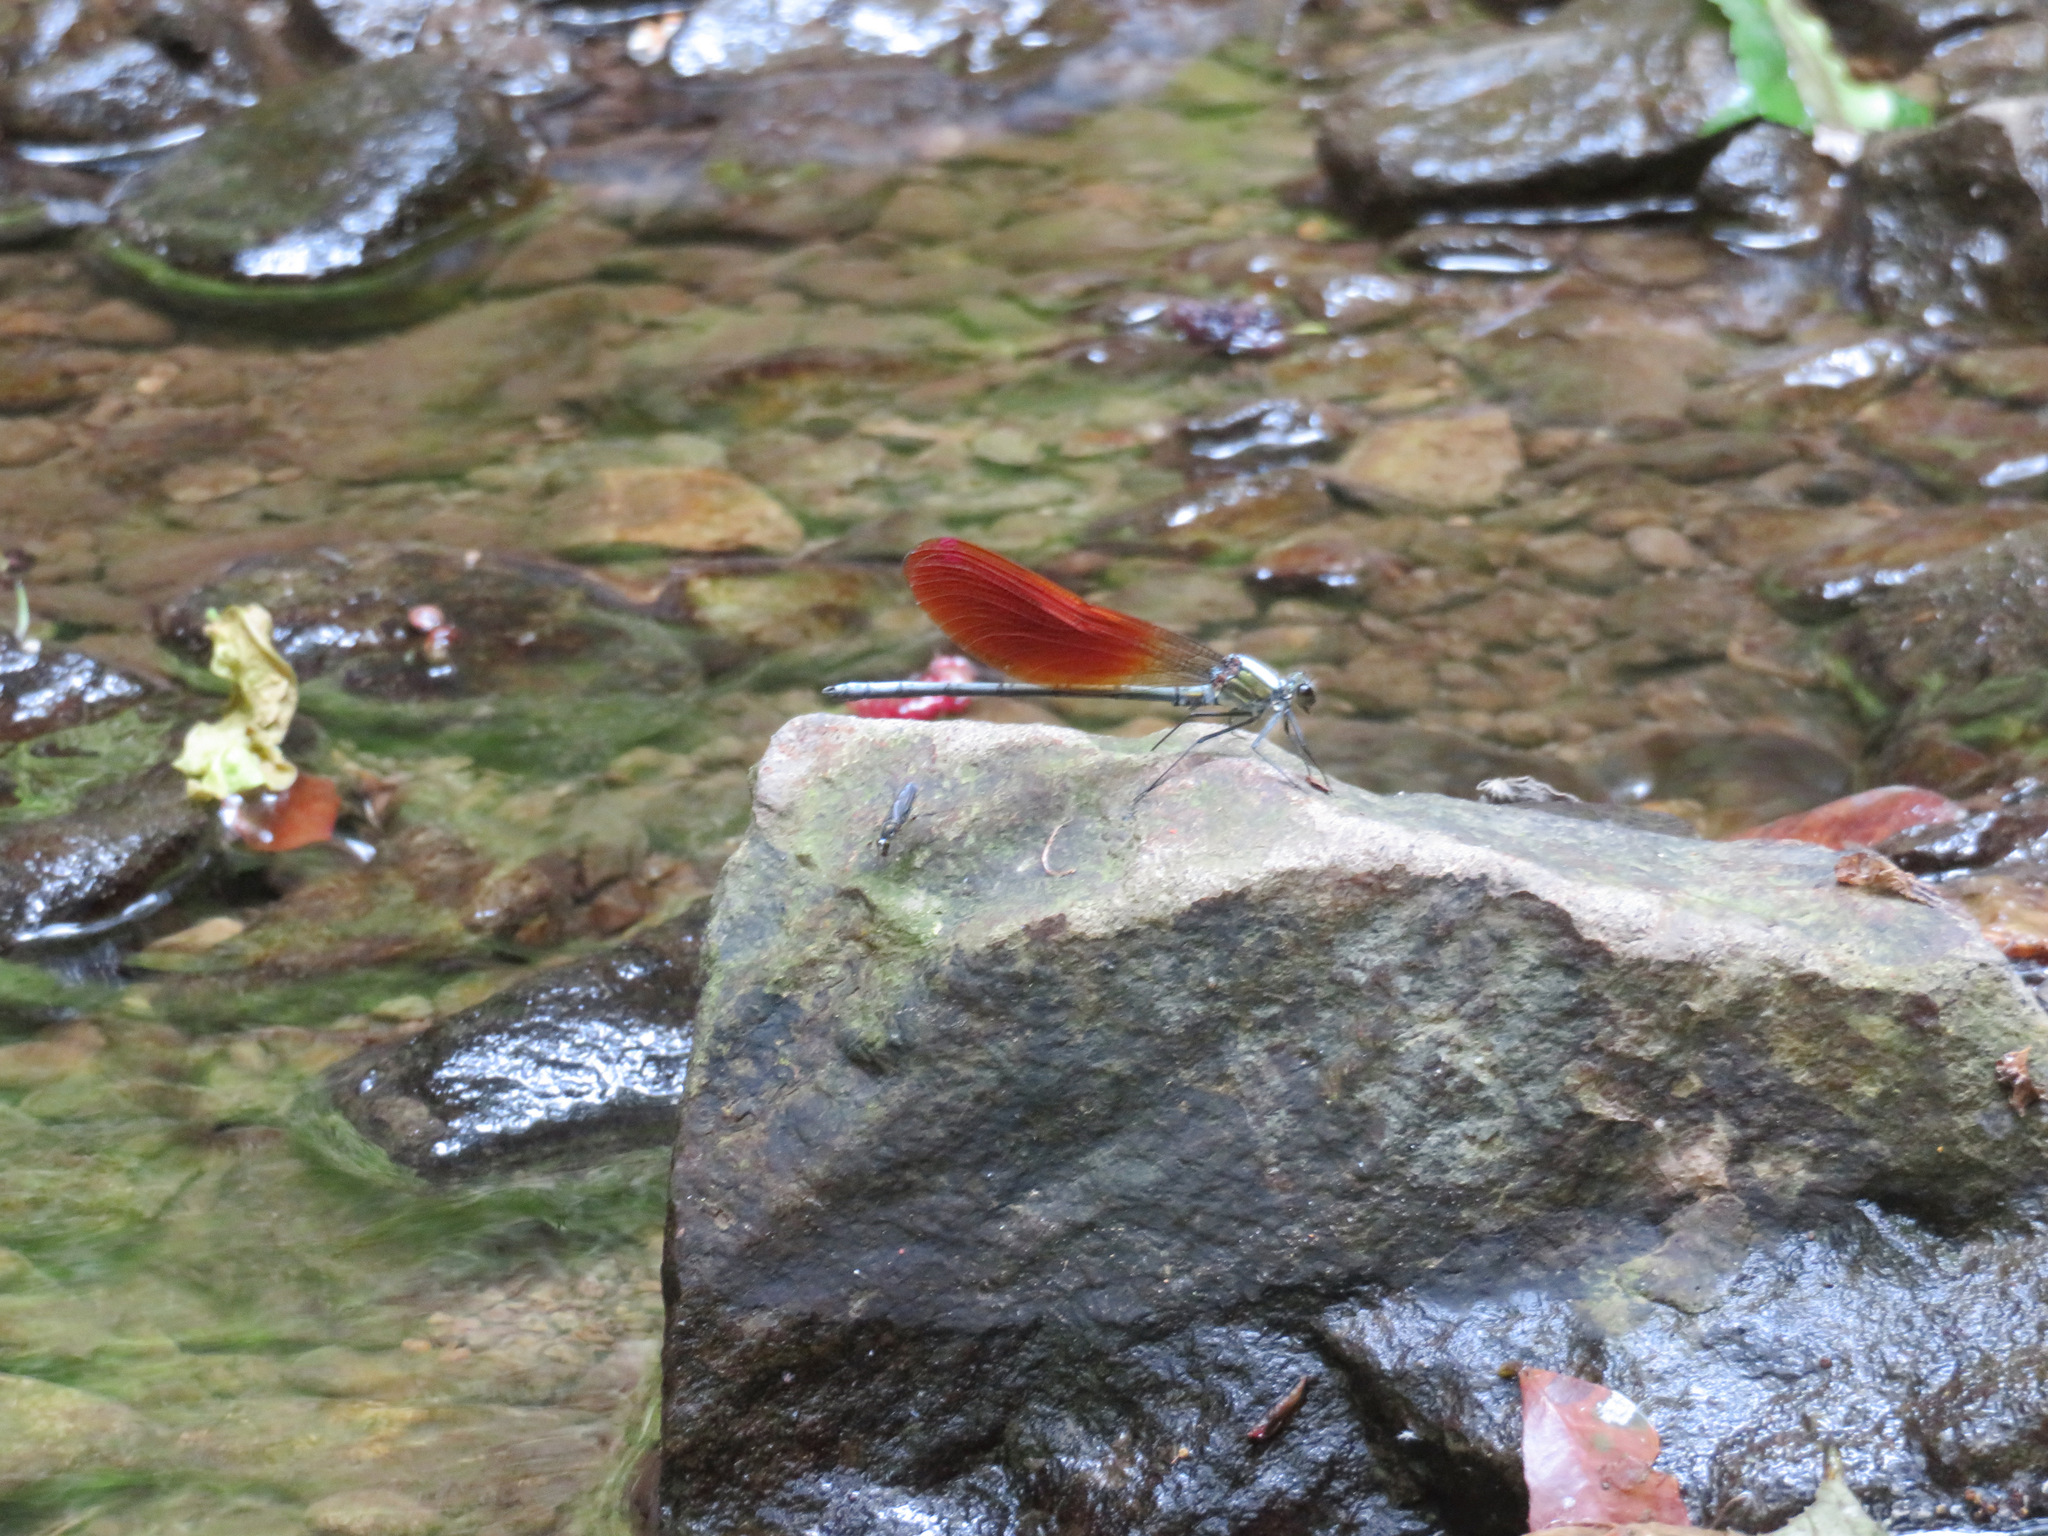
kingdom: Animalia
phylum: Arthropoda
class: Insecta
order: Odonata
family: Calopterygidae
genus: Mnais
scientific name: Mnais pruinosa
